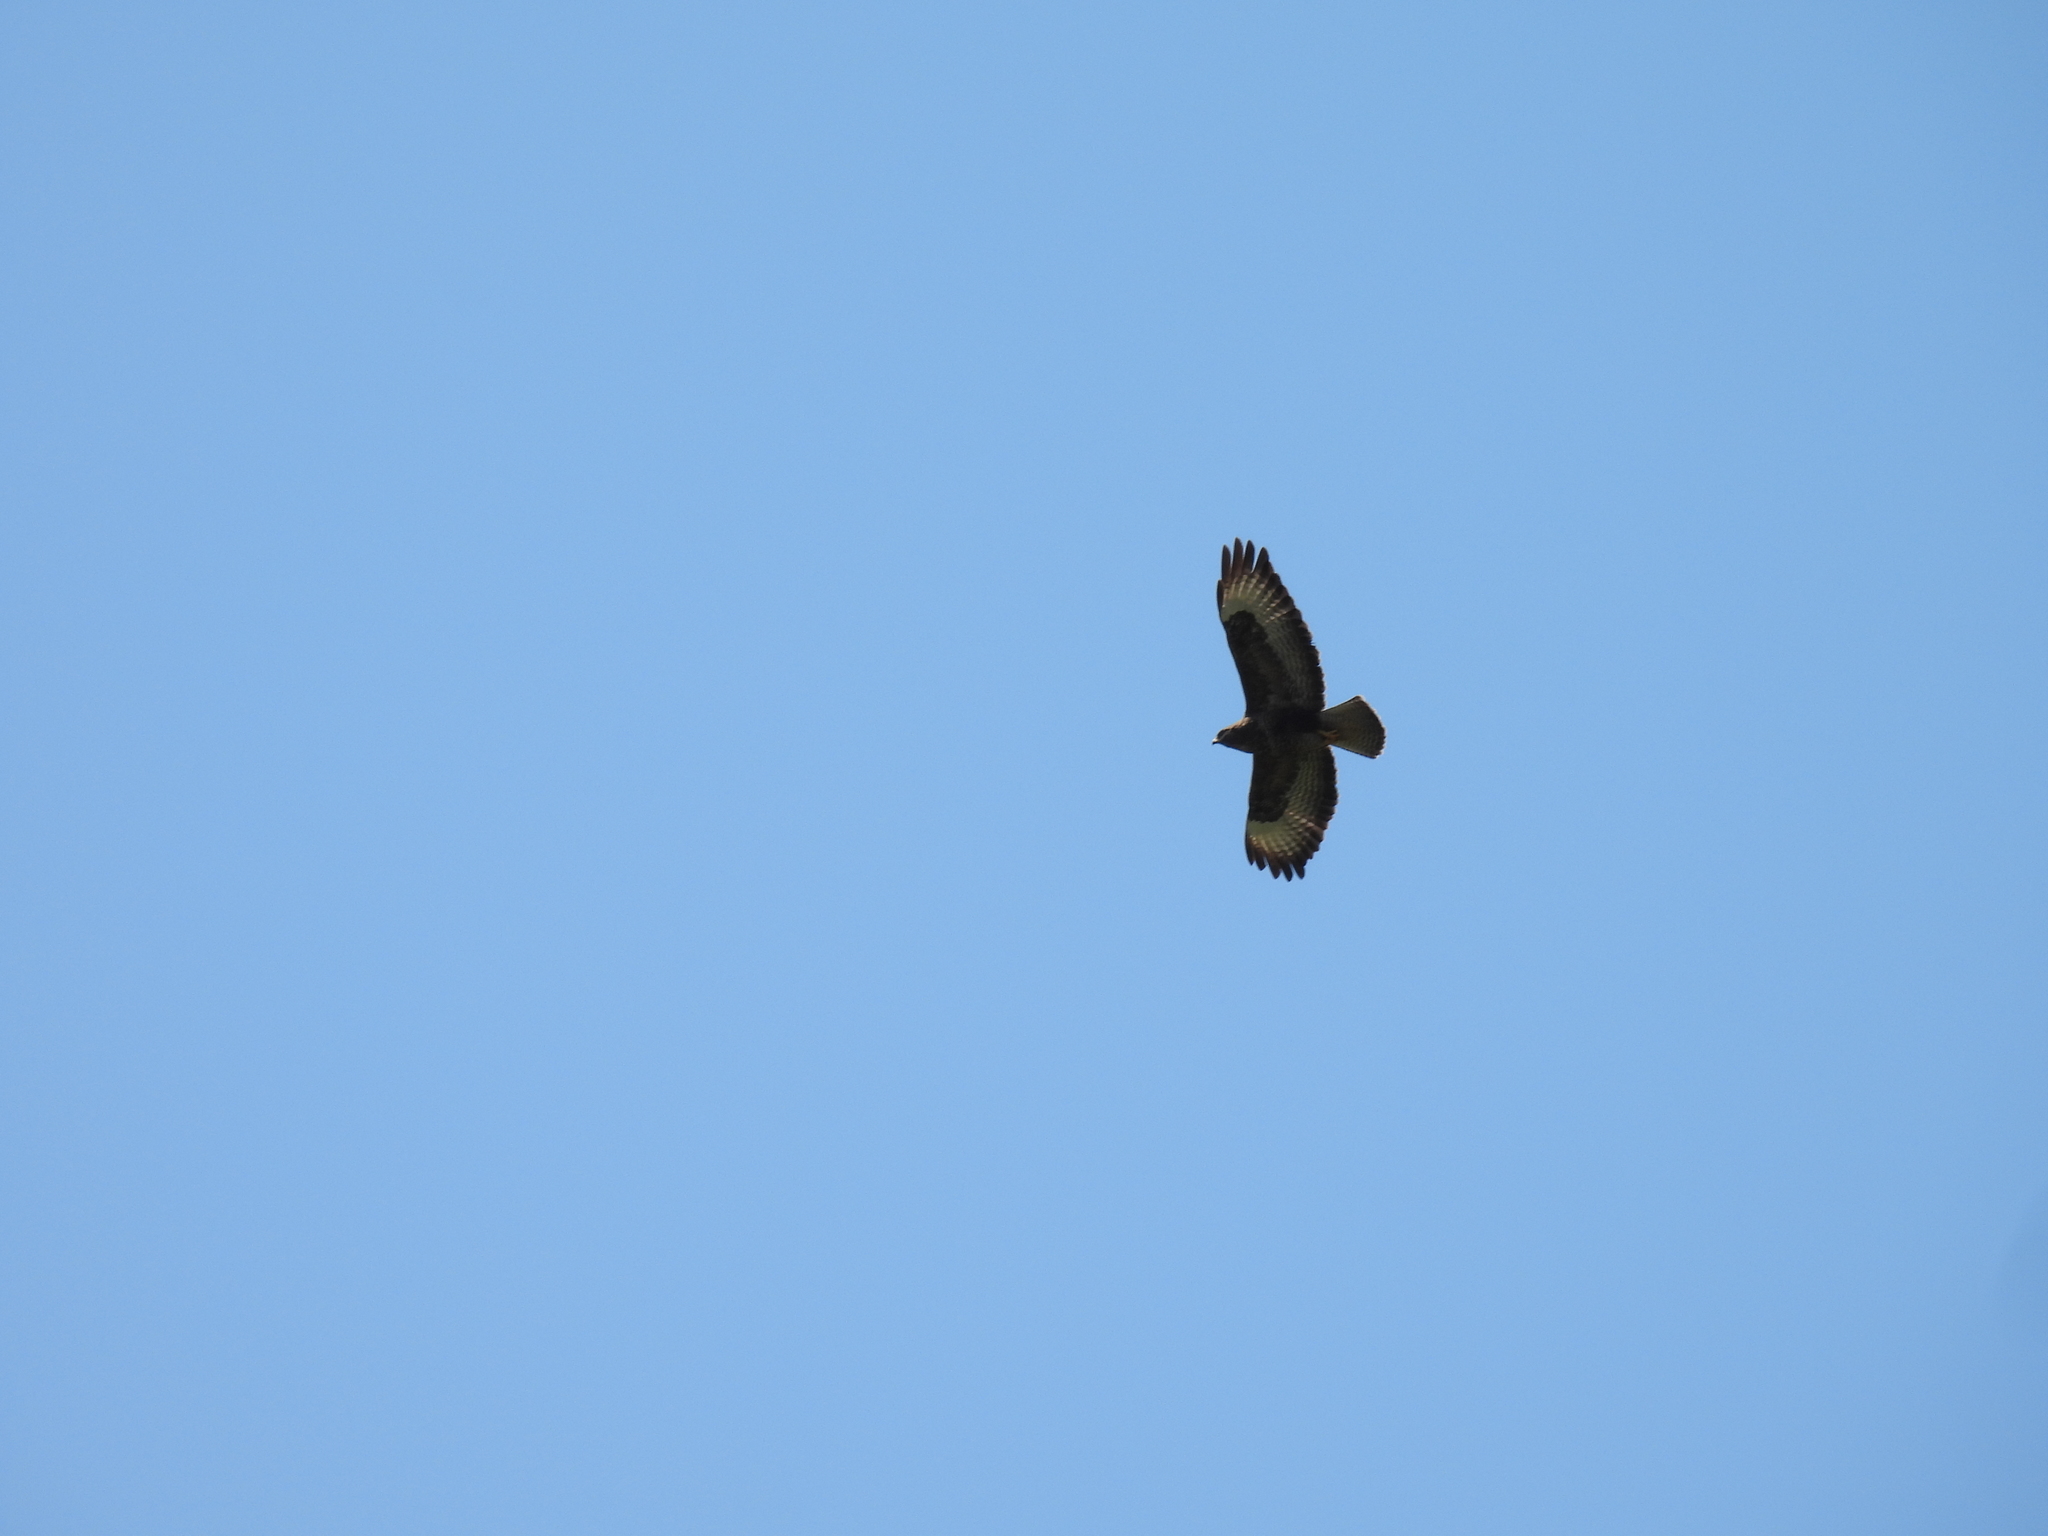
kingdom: Animalia
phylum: Chordata
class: Aves
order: Accipitriformes
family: Accipitridae
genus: Buteo
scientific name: Buteo buteo
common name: Common buzzard
